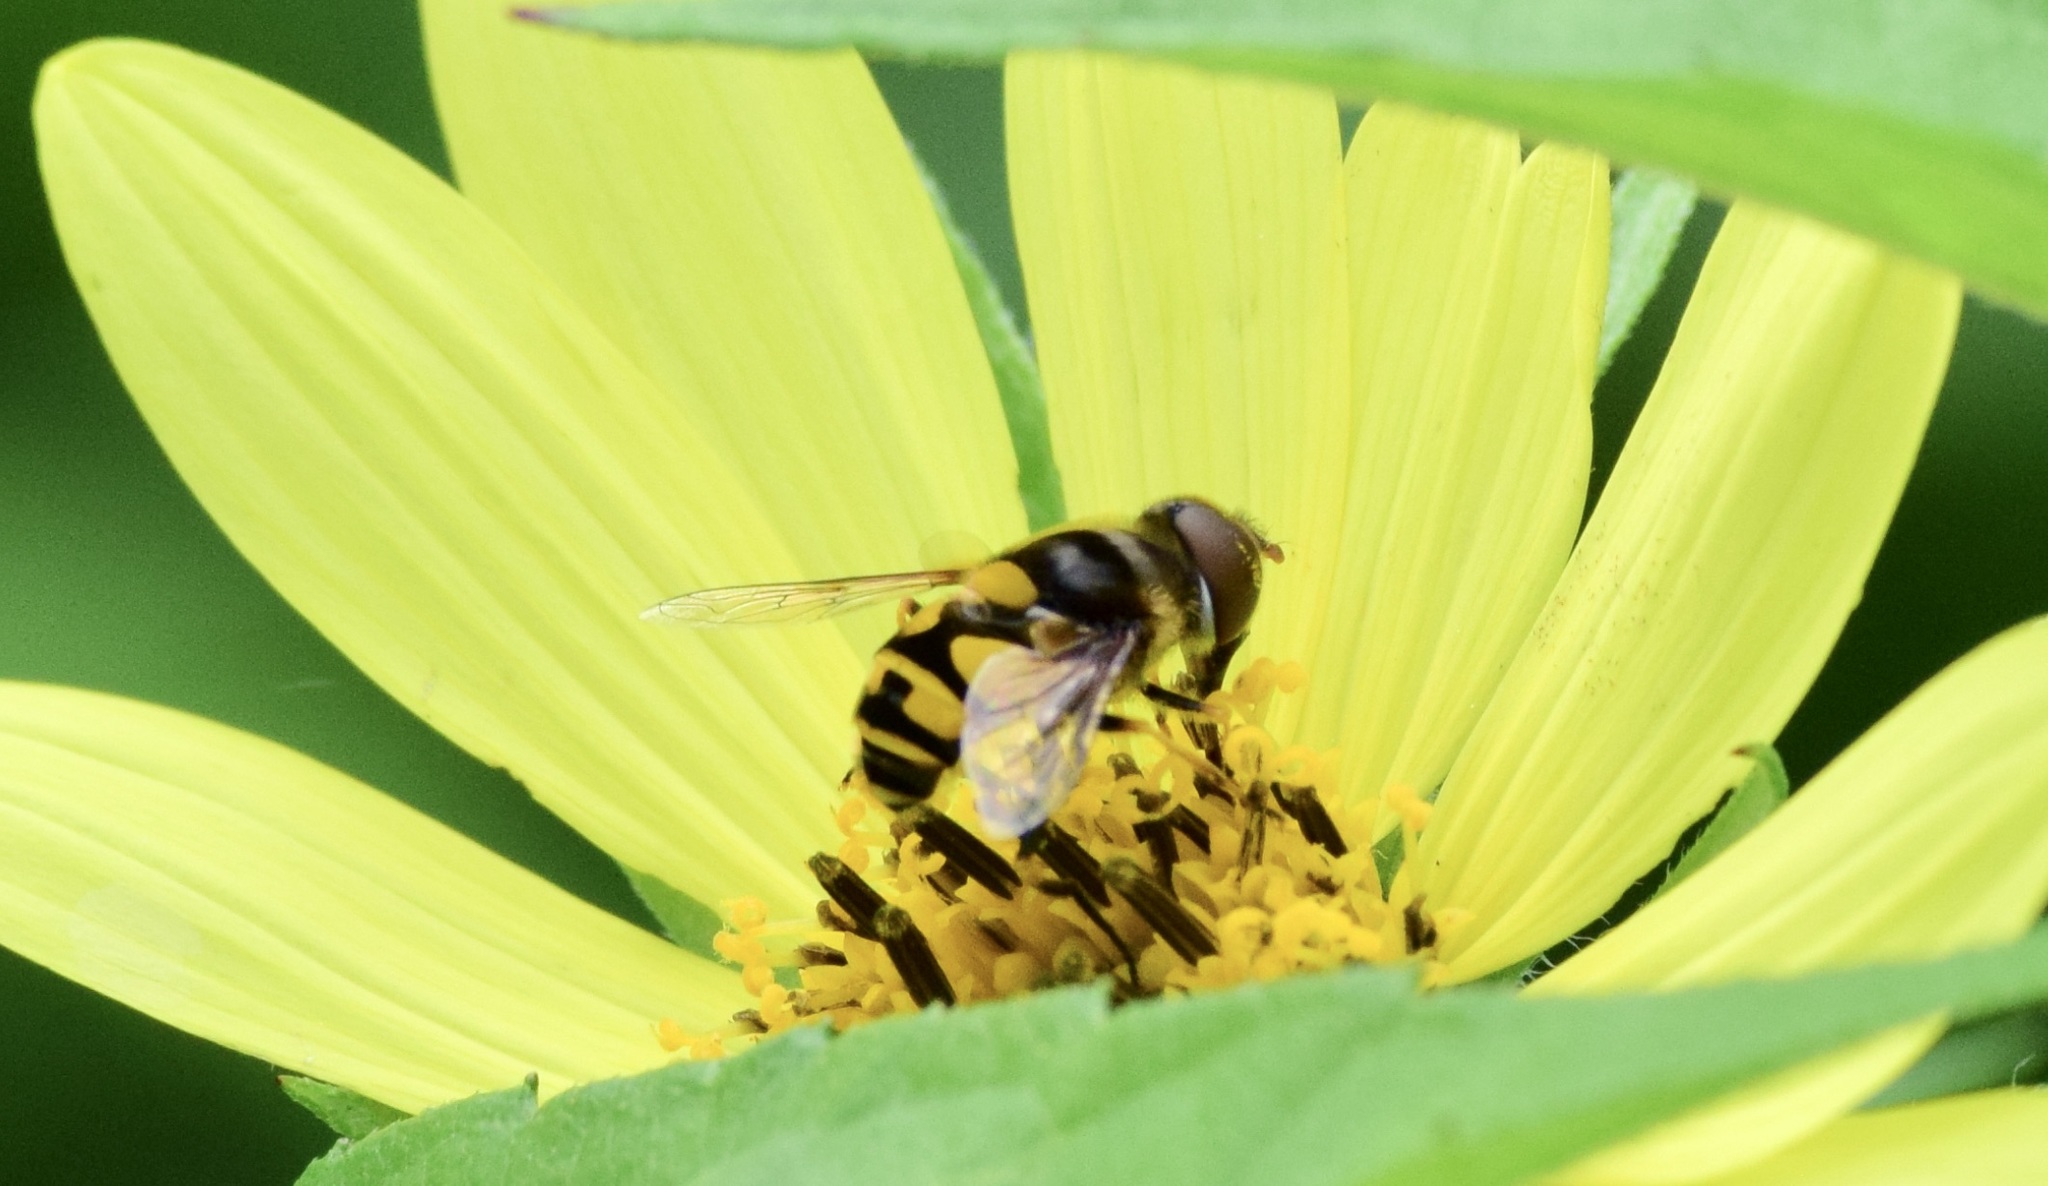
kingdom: Animalia
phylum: Arthropoda
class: Insecta
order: Diptera
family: Syrphidae
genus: Eristalis
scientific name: Eristalis transversa
